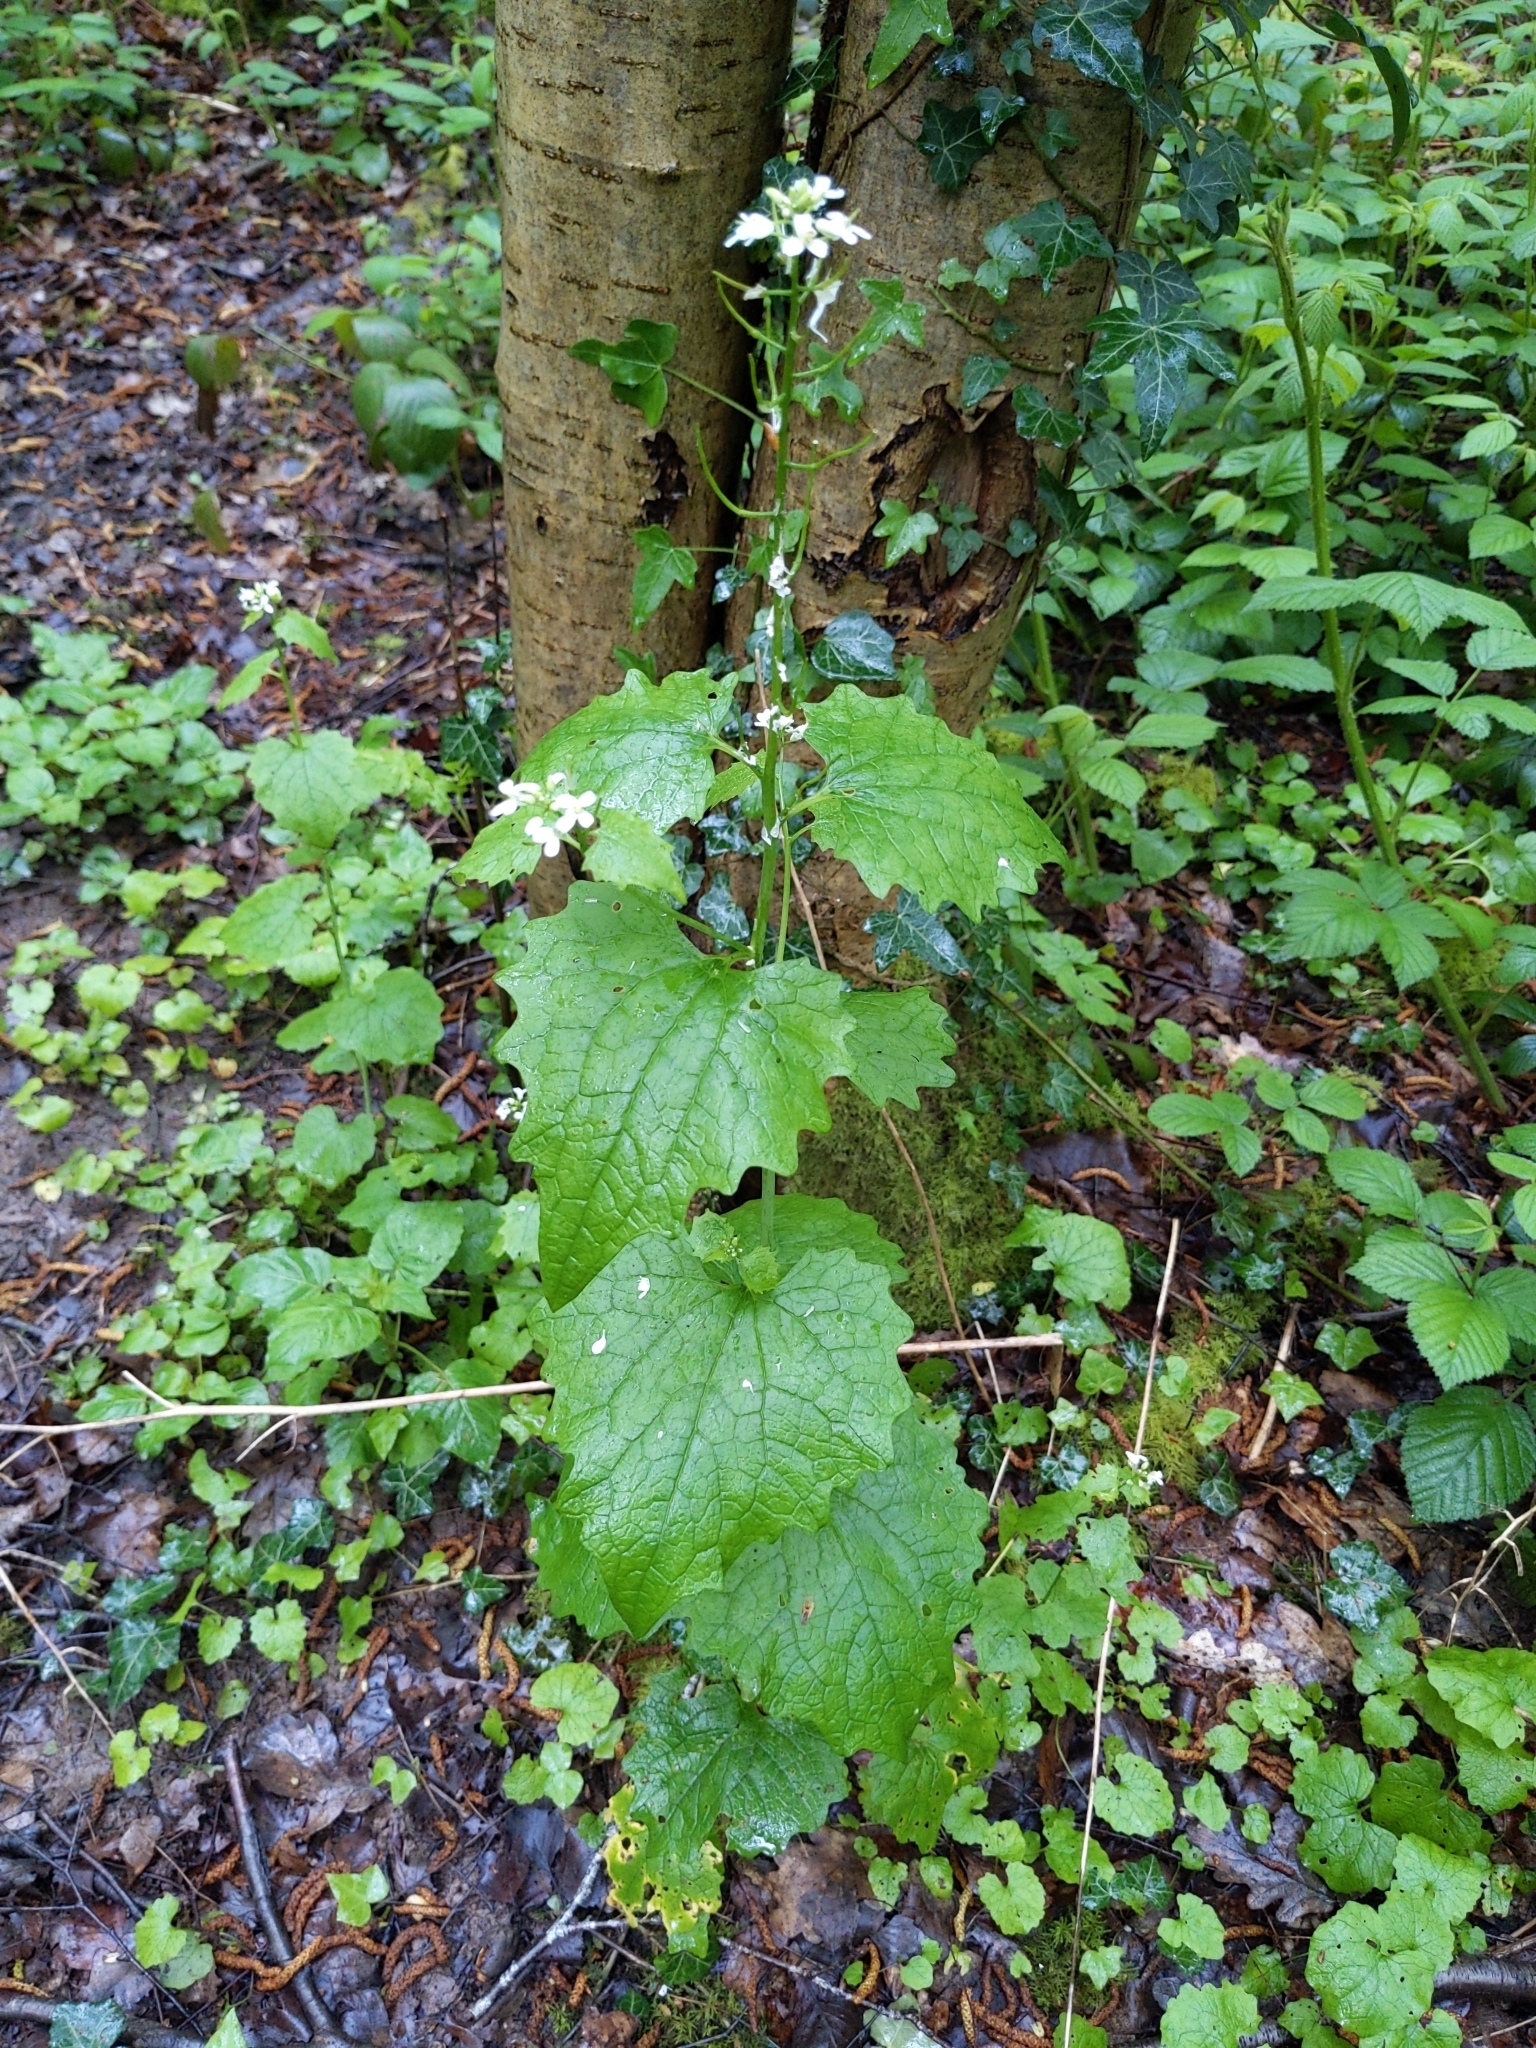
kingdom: Plantae
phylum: Tracheophyta
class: Magnoliopsida
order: Brassicales
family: Brassicaceae
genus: Alliaria
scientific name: Alliaria petiolata
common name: Garlic mustard
